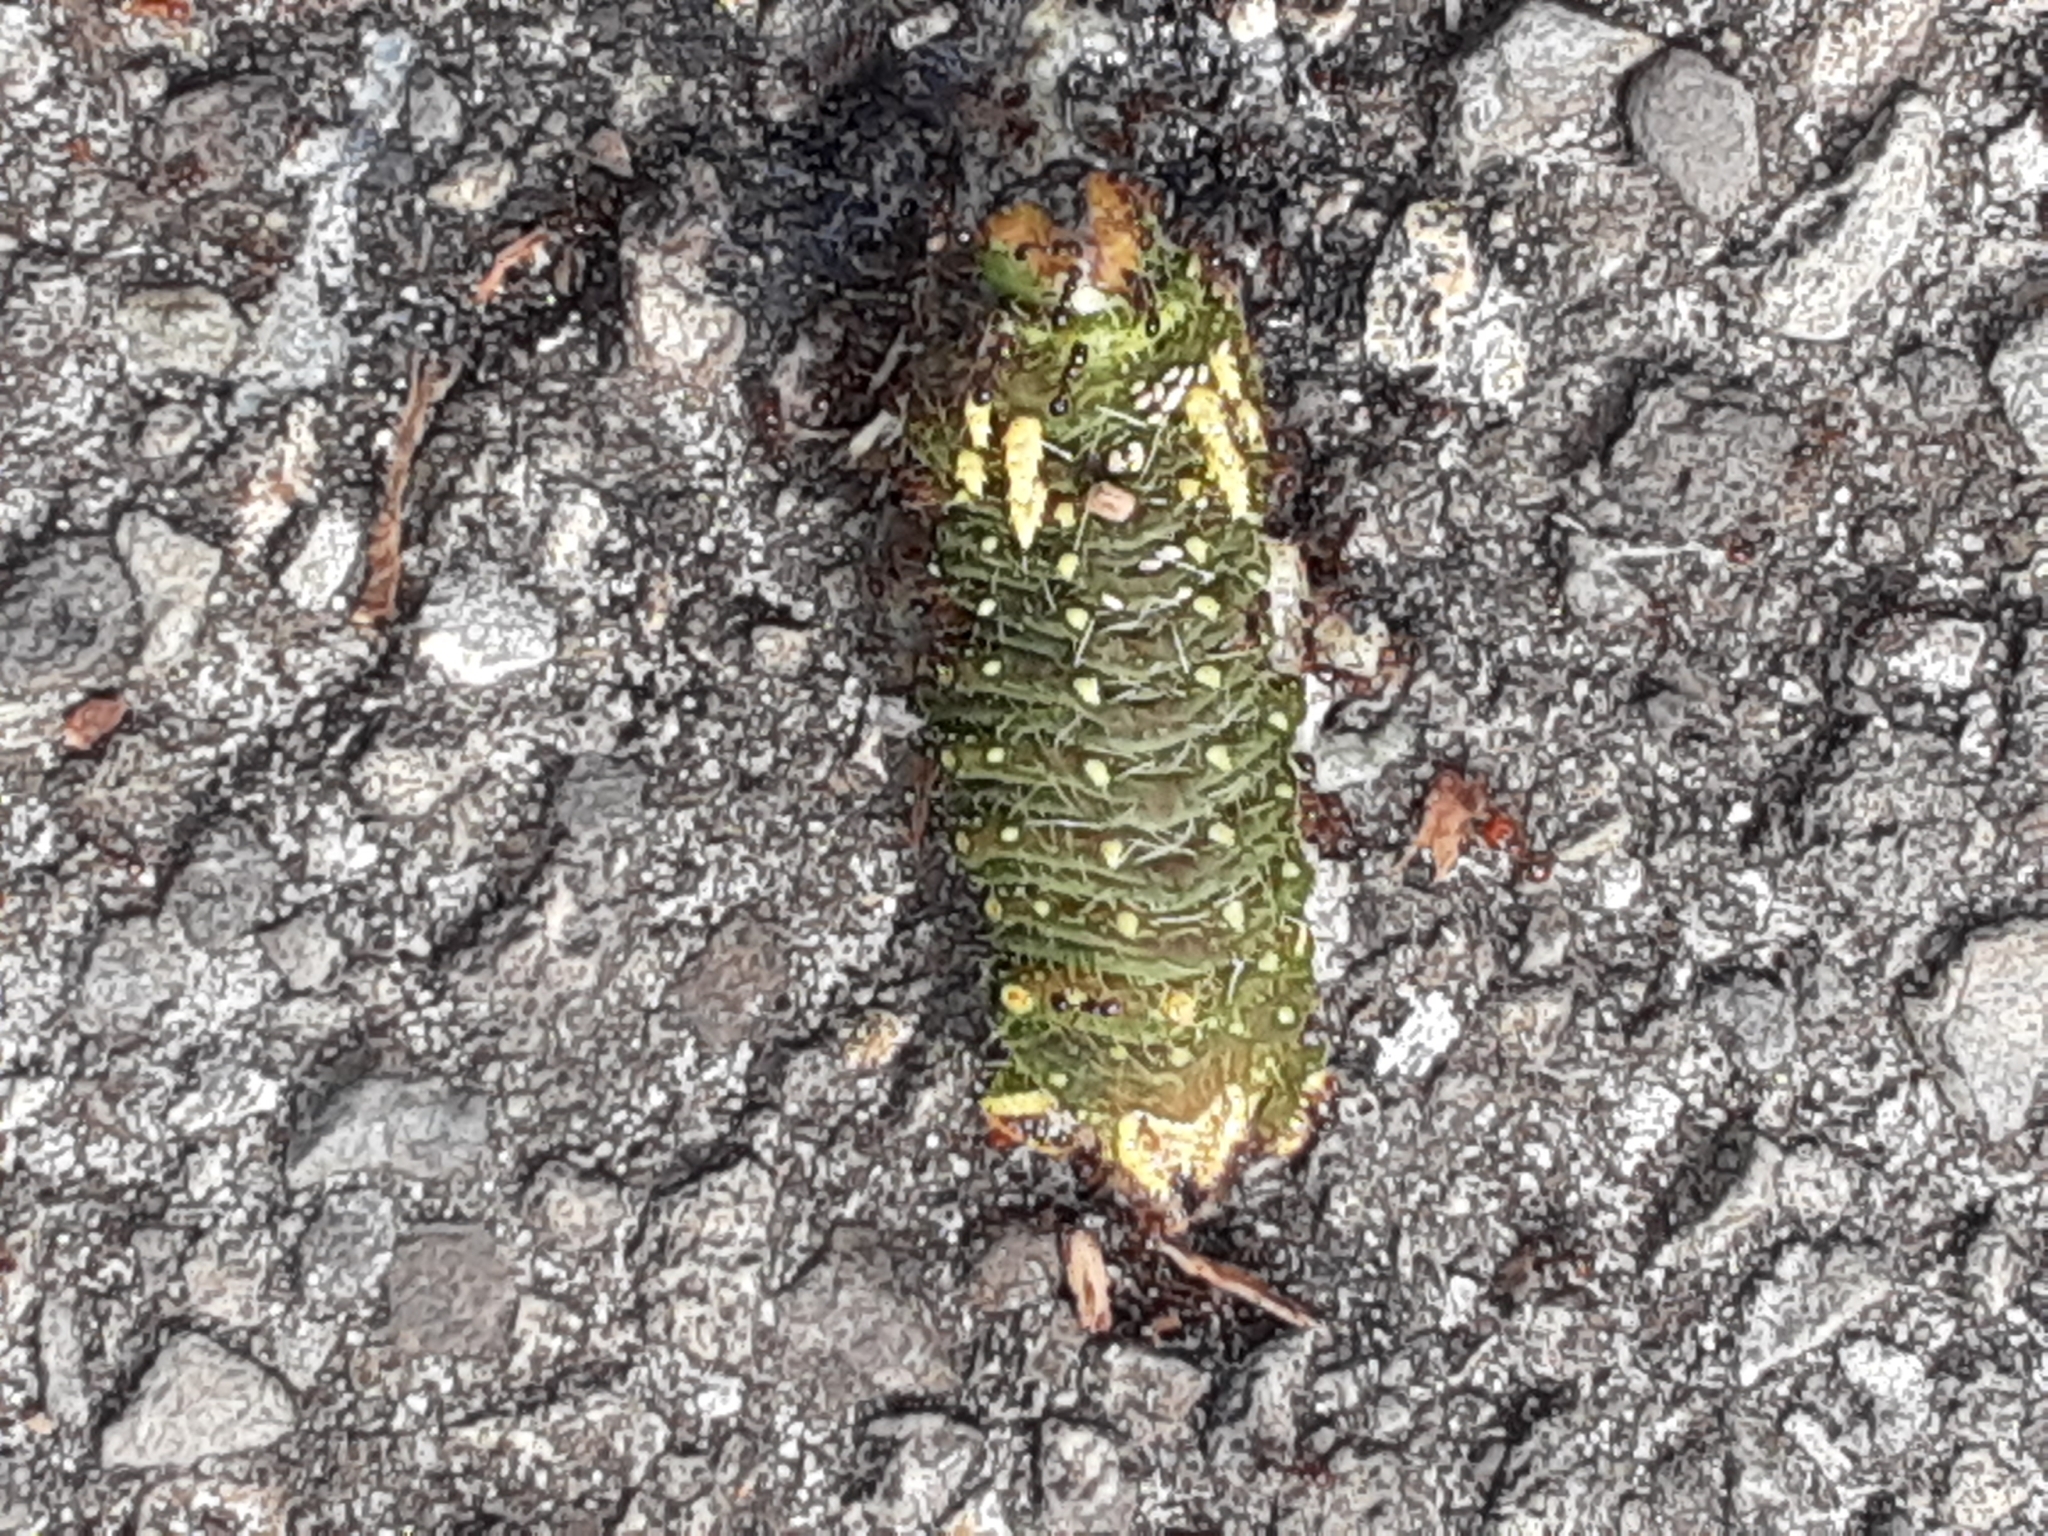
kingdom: Animalia
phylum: Arthropoda
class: Insecta
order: Lepidoptera
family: Saturniidae
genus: Eacles
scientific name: Eacles imperialis
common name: Imperial moth
